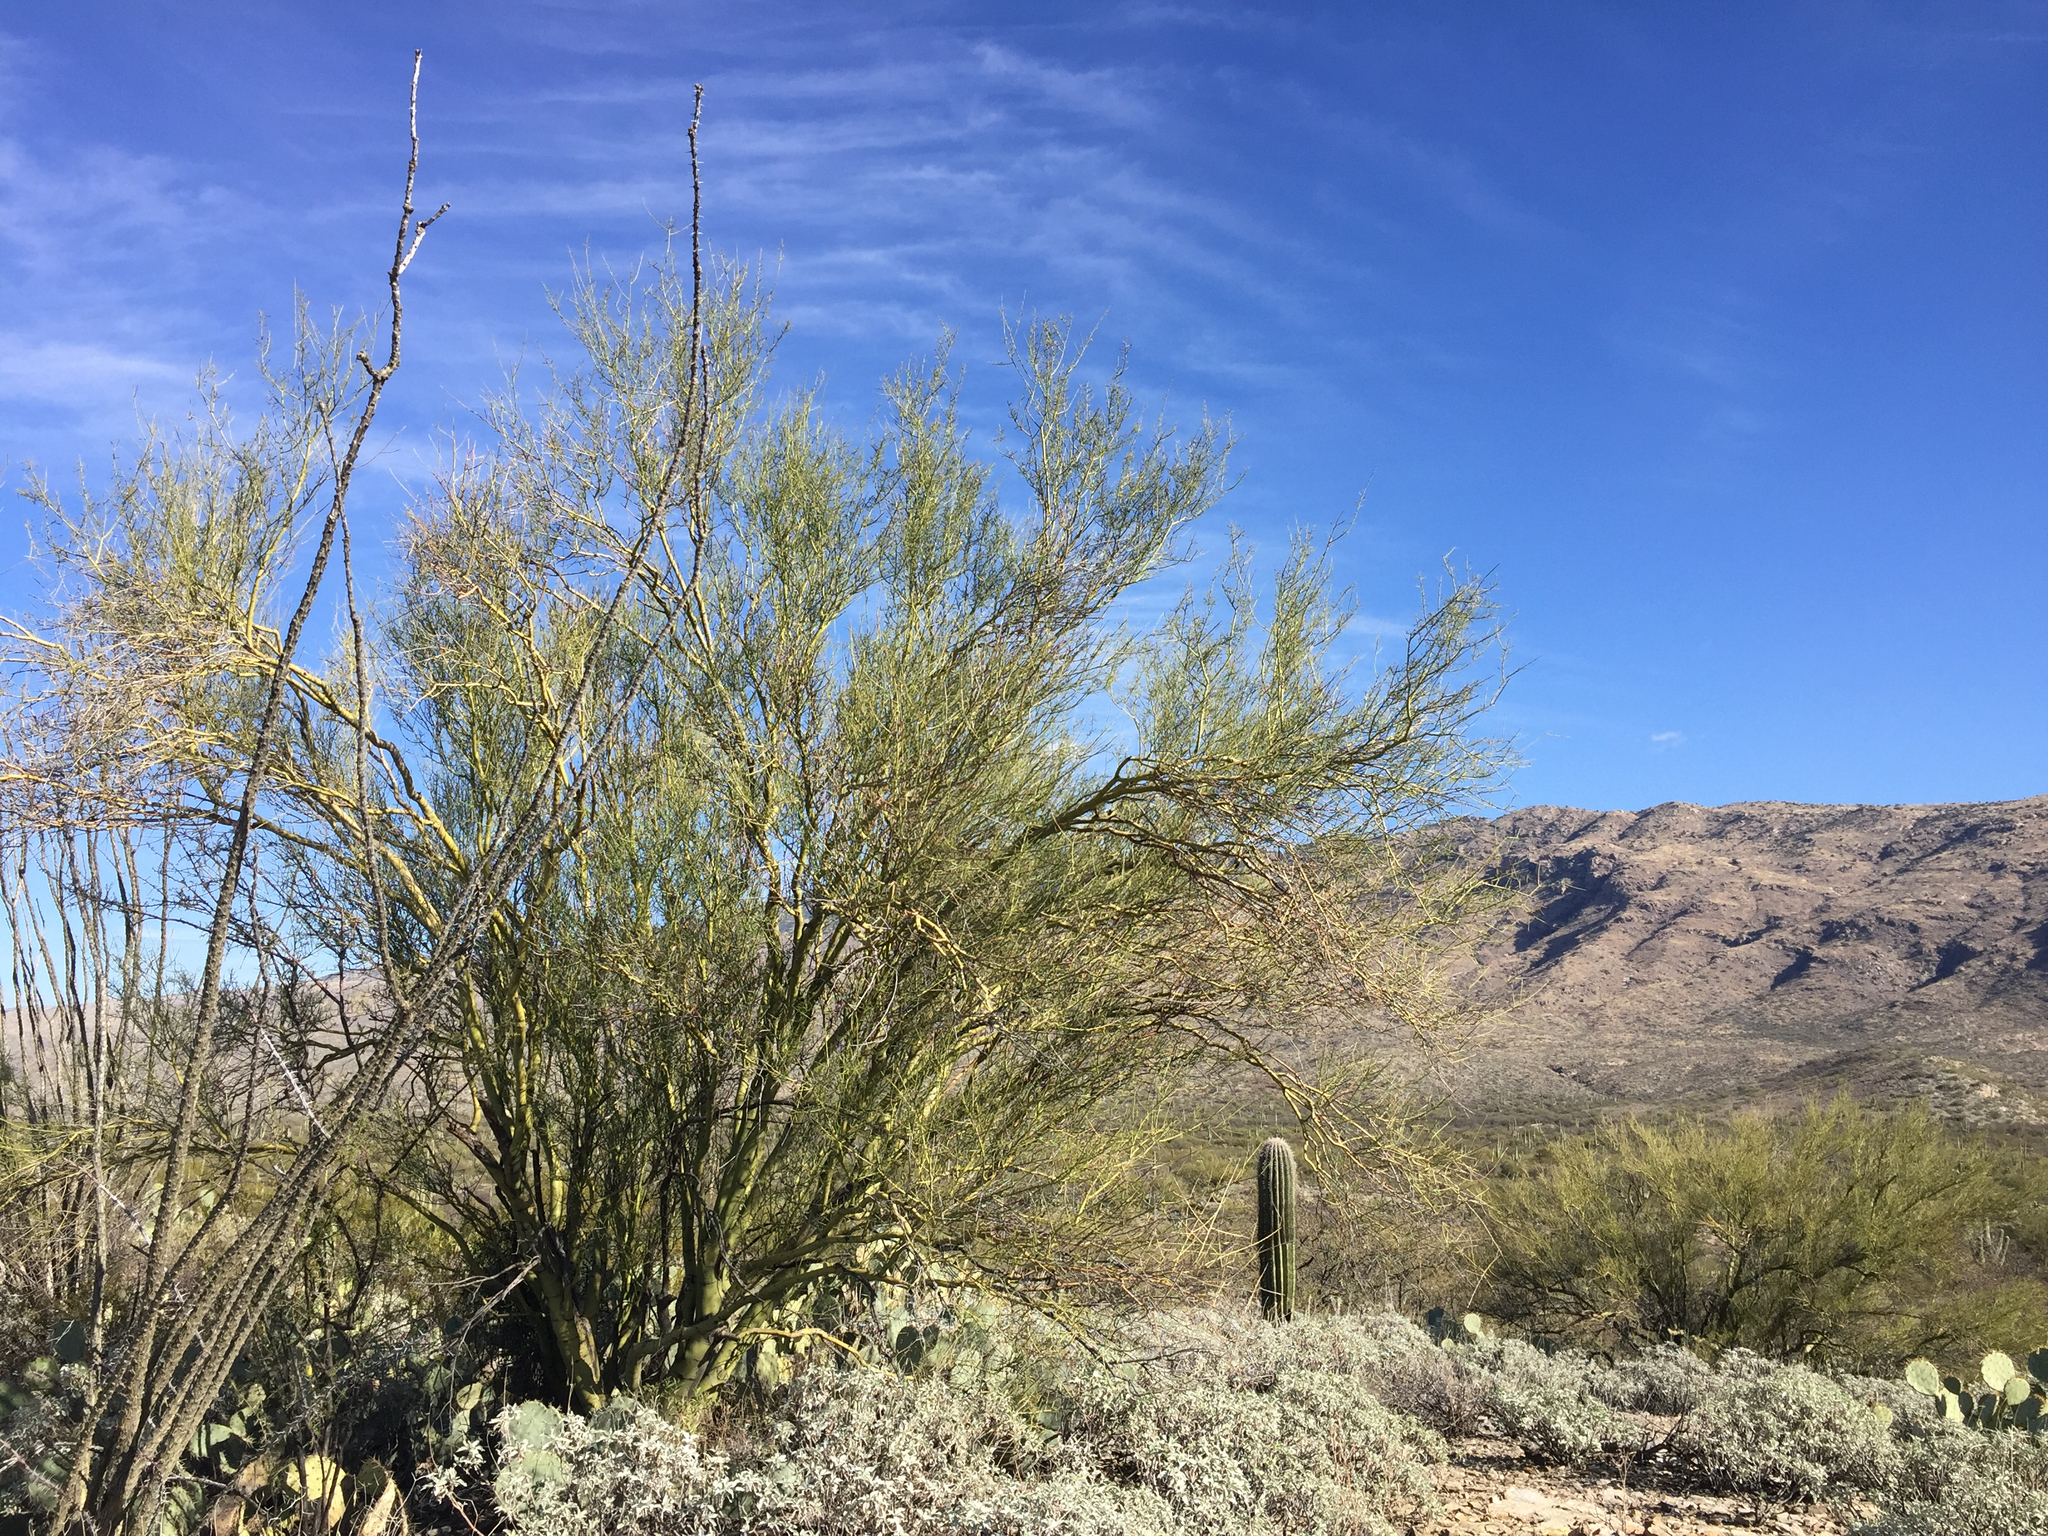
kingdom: Plantae
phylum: Tracheophyta
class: Magnoliopsida
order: Fabales
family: Fabaceae
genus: Parkinsonia
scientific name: Parkinsonia microphylla
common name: Yellow paloverde
